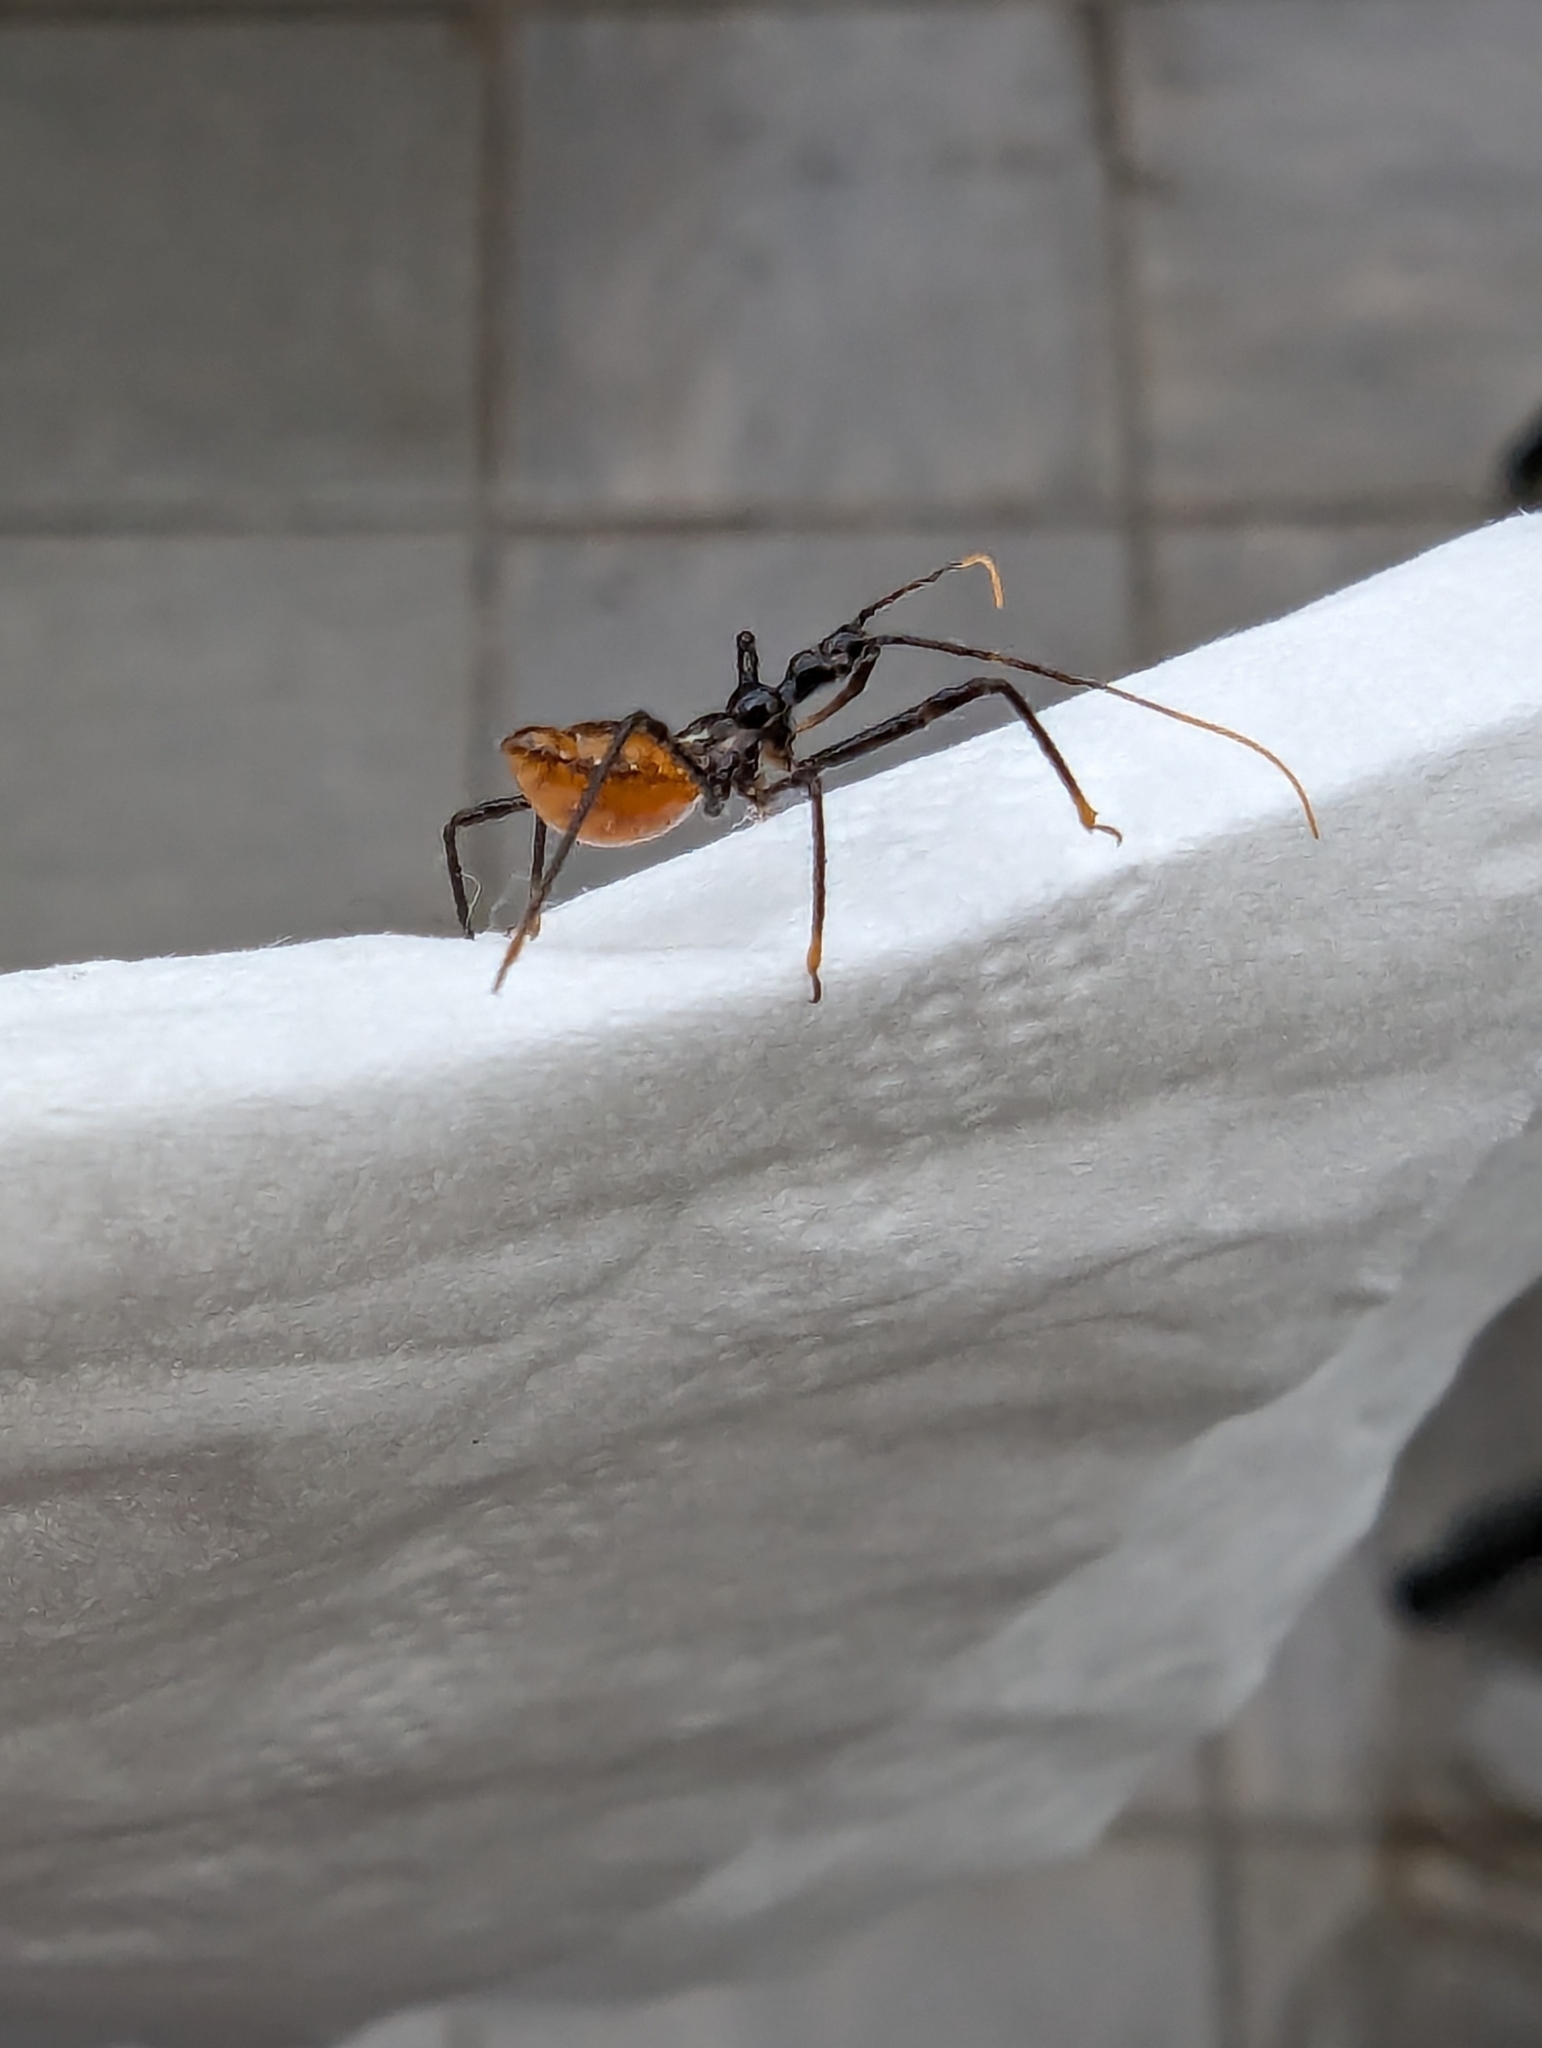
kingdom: Animalia
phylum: Arthropoda
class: Insecta
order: Hemiptera
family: Reduviidae
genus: Pristhesancus
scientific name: Pristhesancus plagipennis
